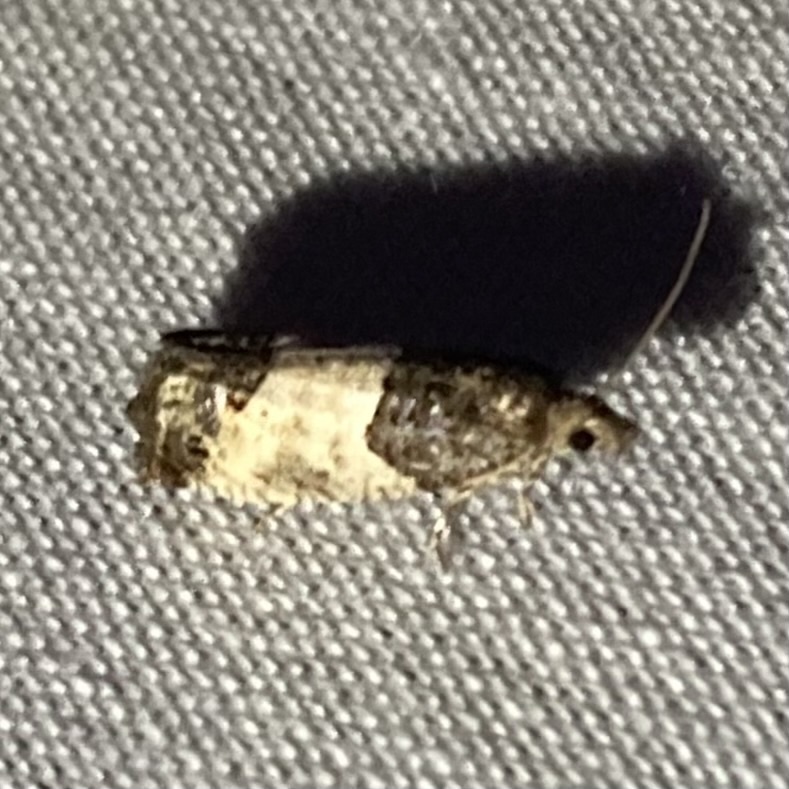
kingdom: Animalia
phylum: Arthropoda
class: Insecta
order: Lepidoptera
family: Tortricidae
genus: Spilonota
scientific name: Spilonota ocellana
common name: Bud moth
